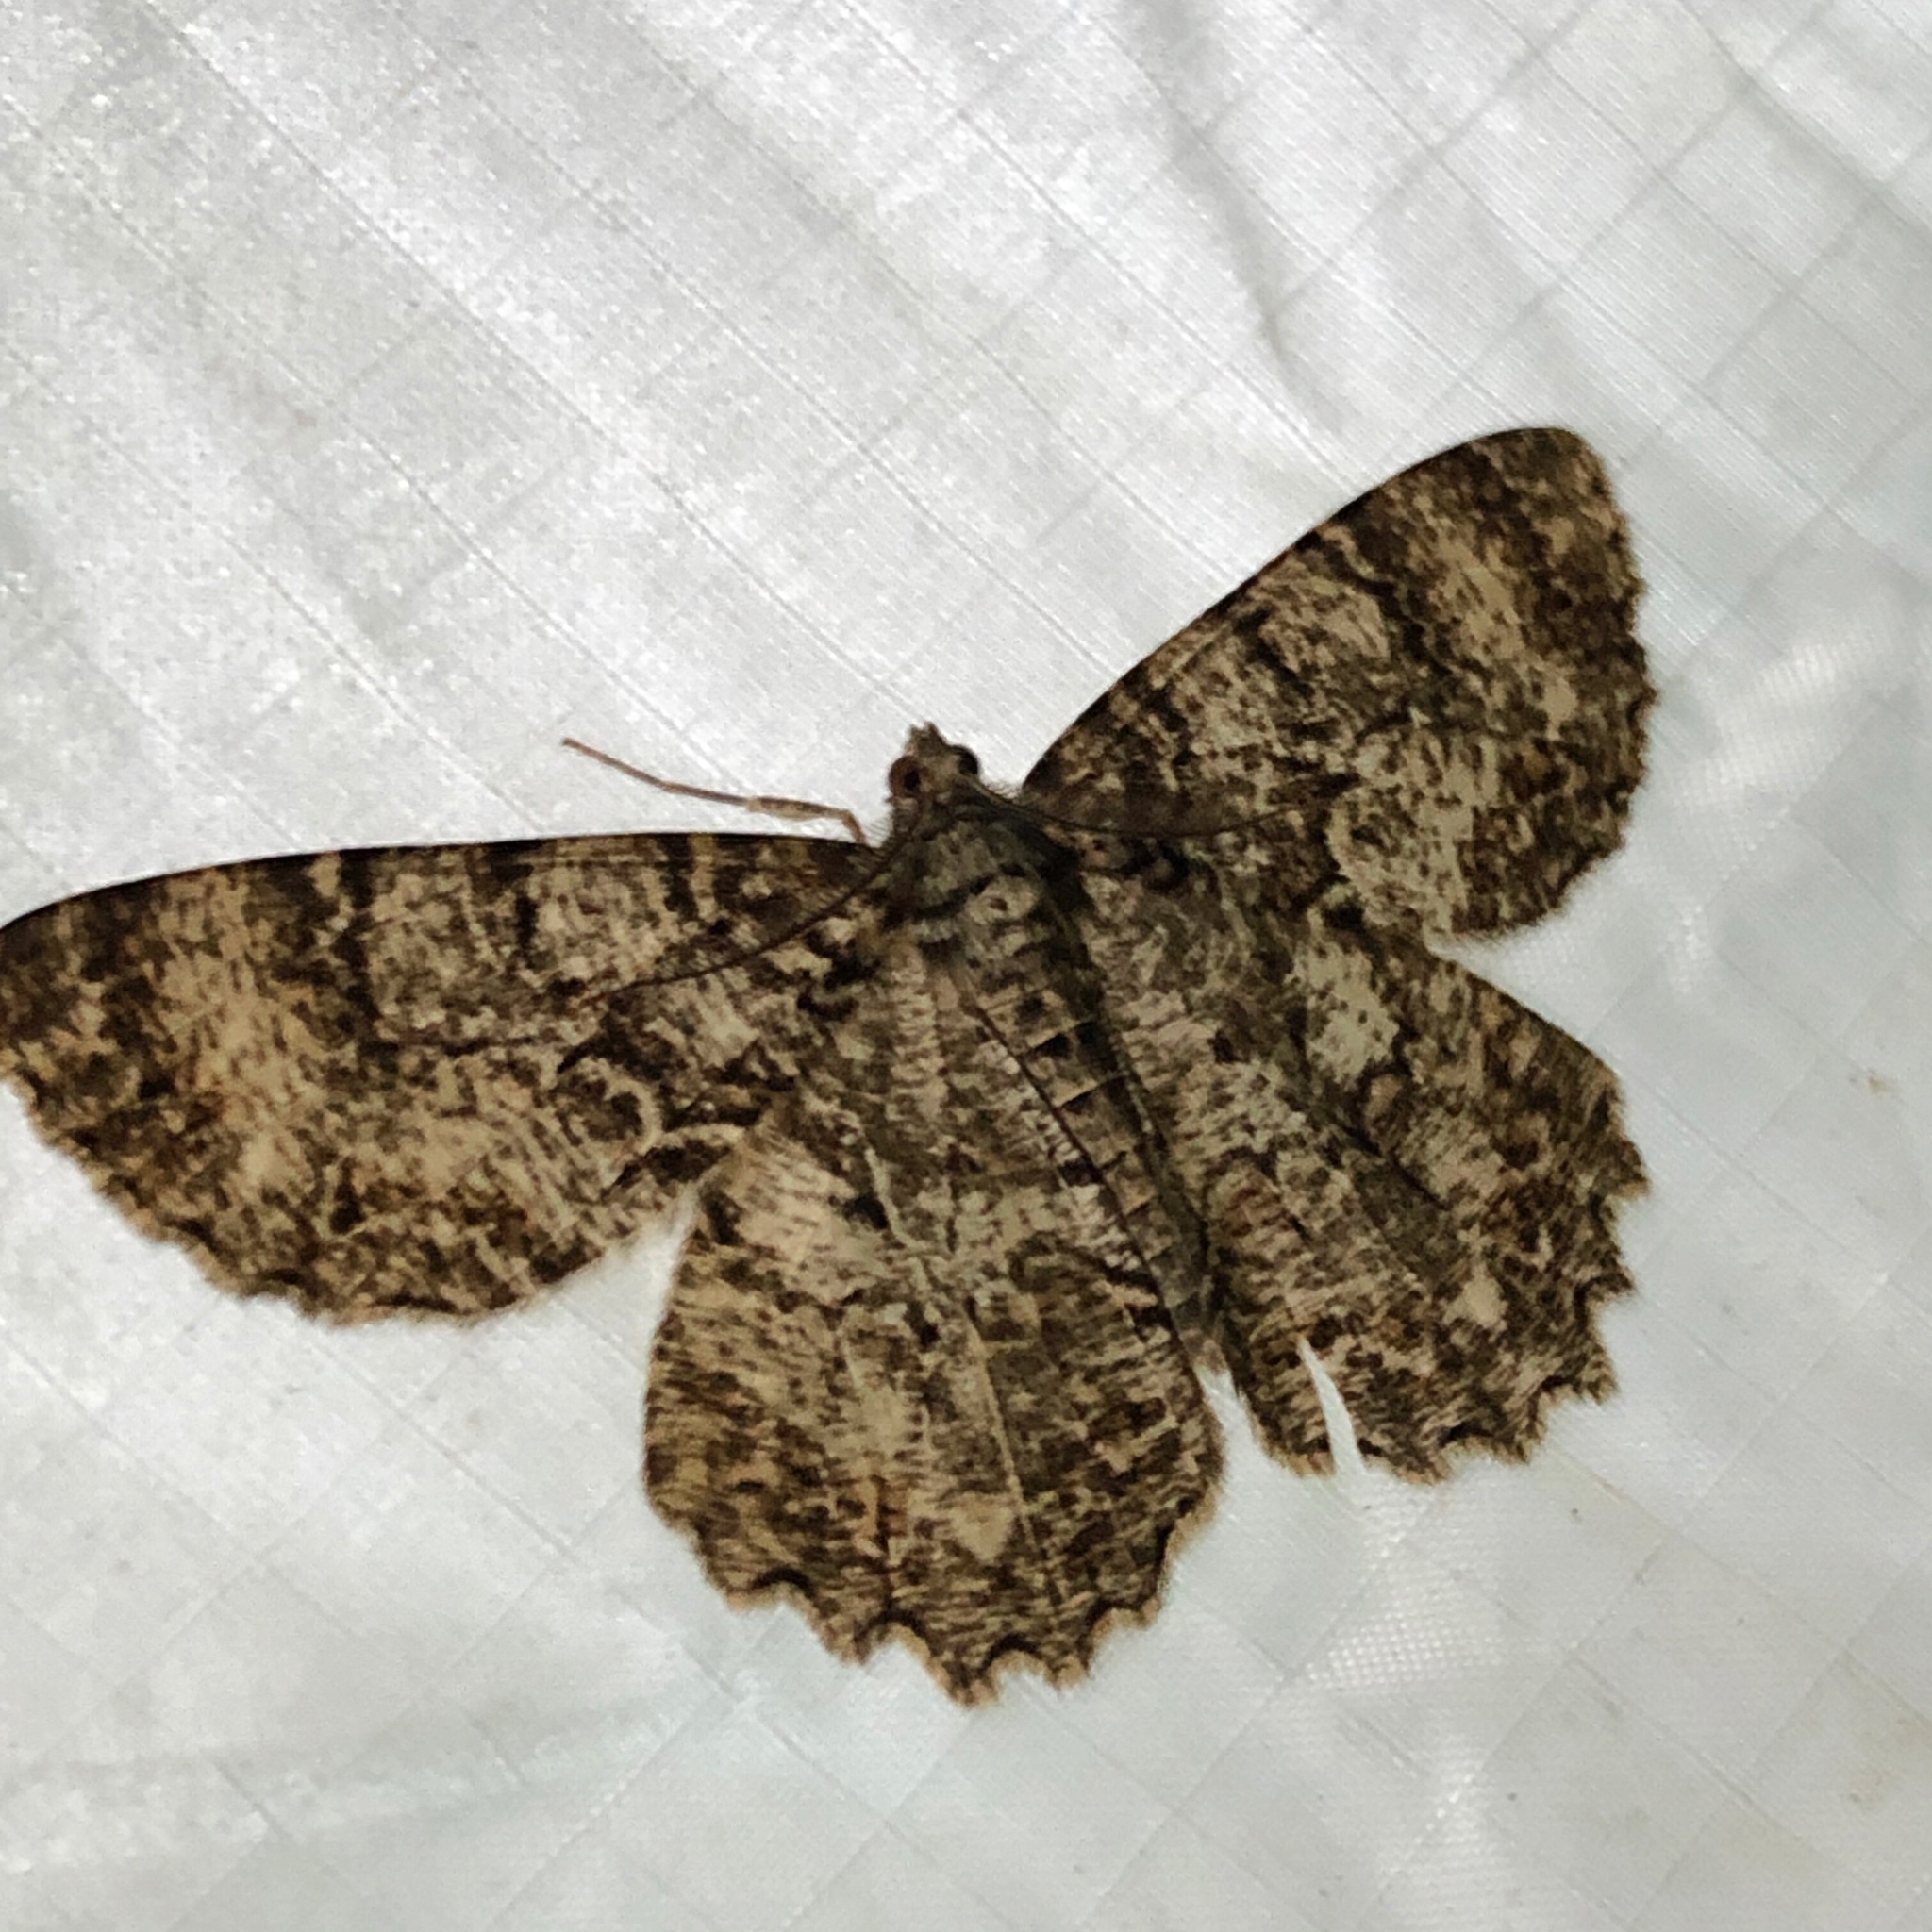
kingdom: Animalia
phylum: Arthropoda
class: Insecta
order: Lepidoptera
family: Geometridae
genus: Epimecis
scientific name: Epimecis hortaria
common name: Tulip-tree beauty
